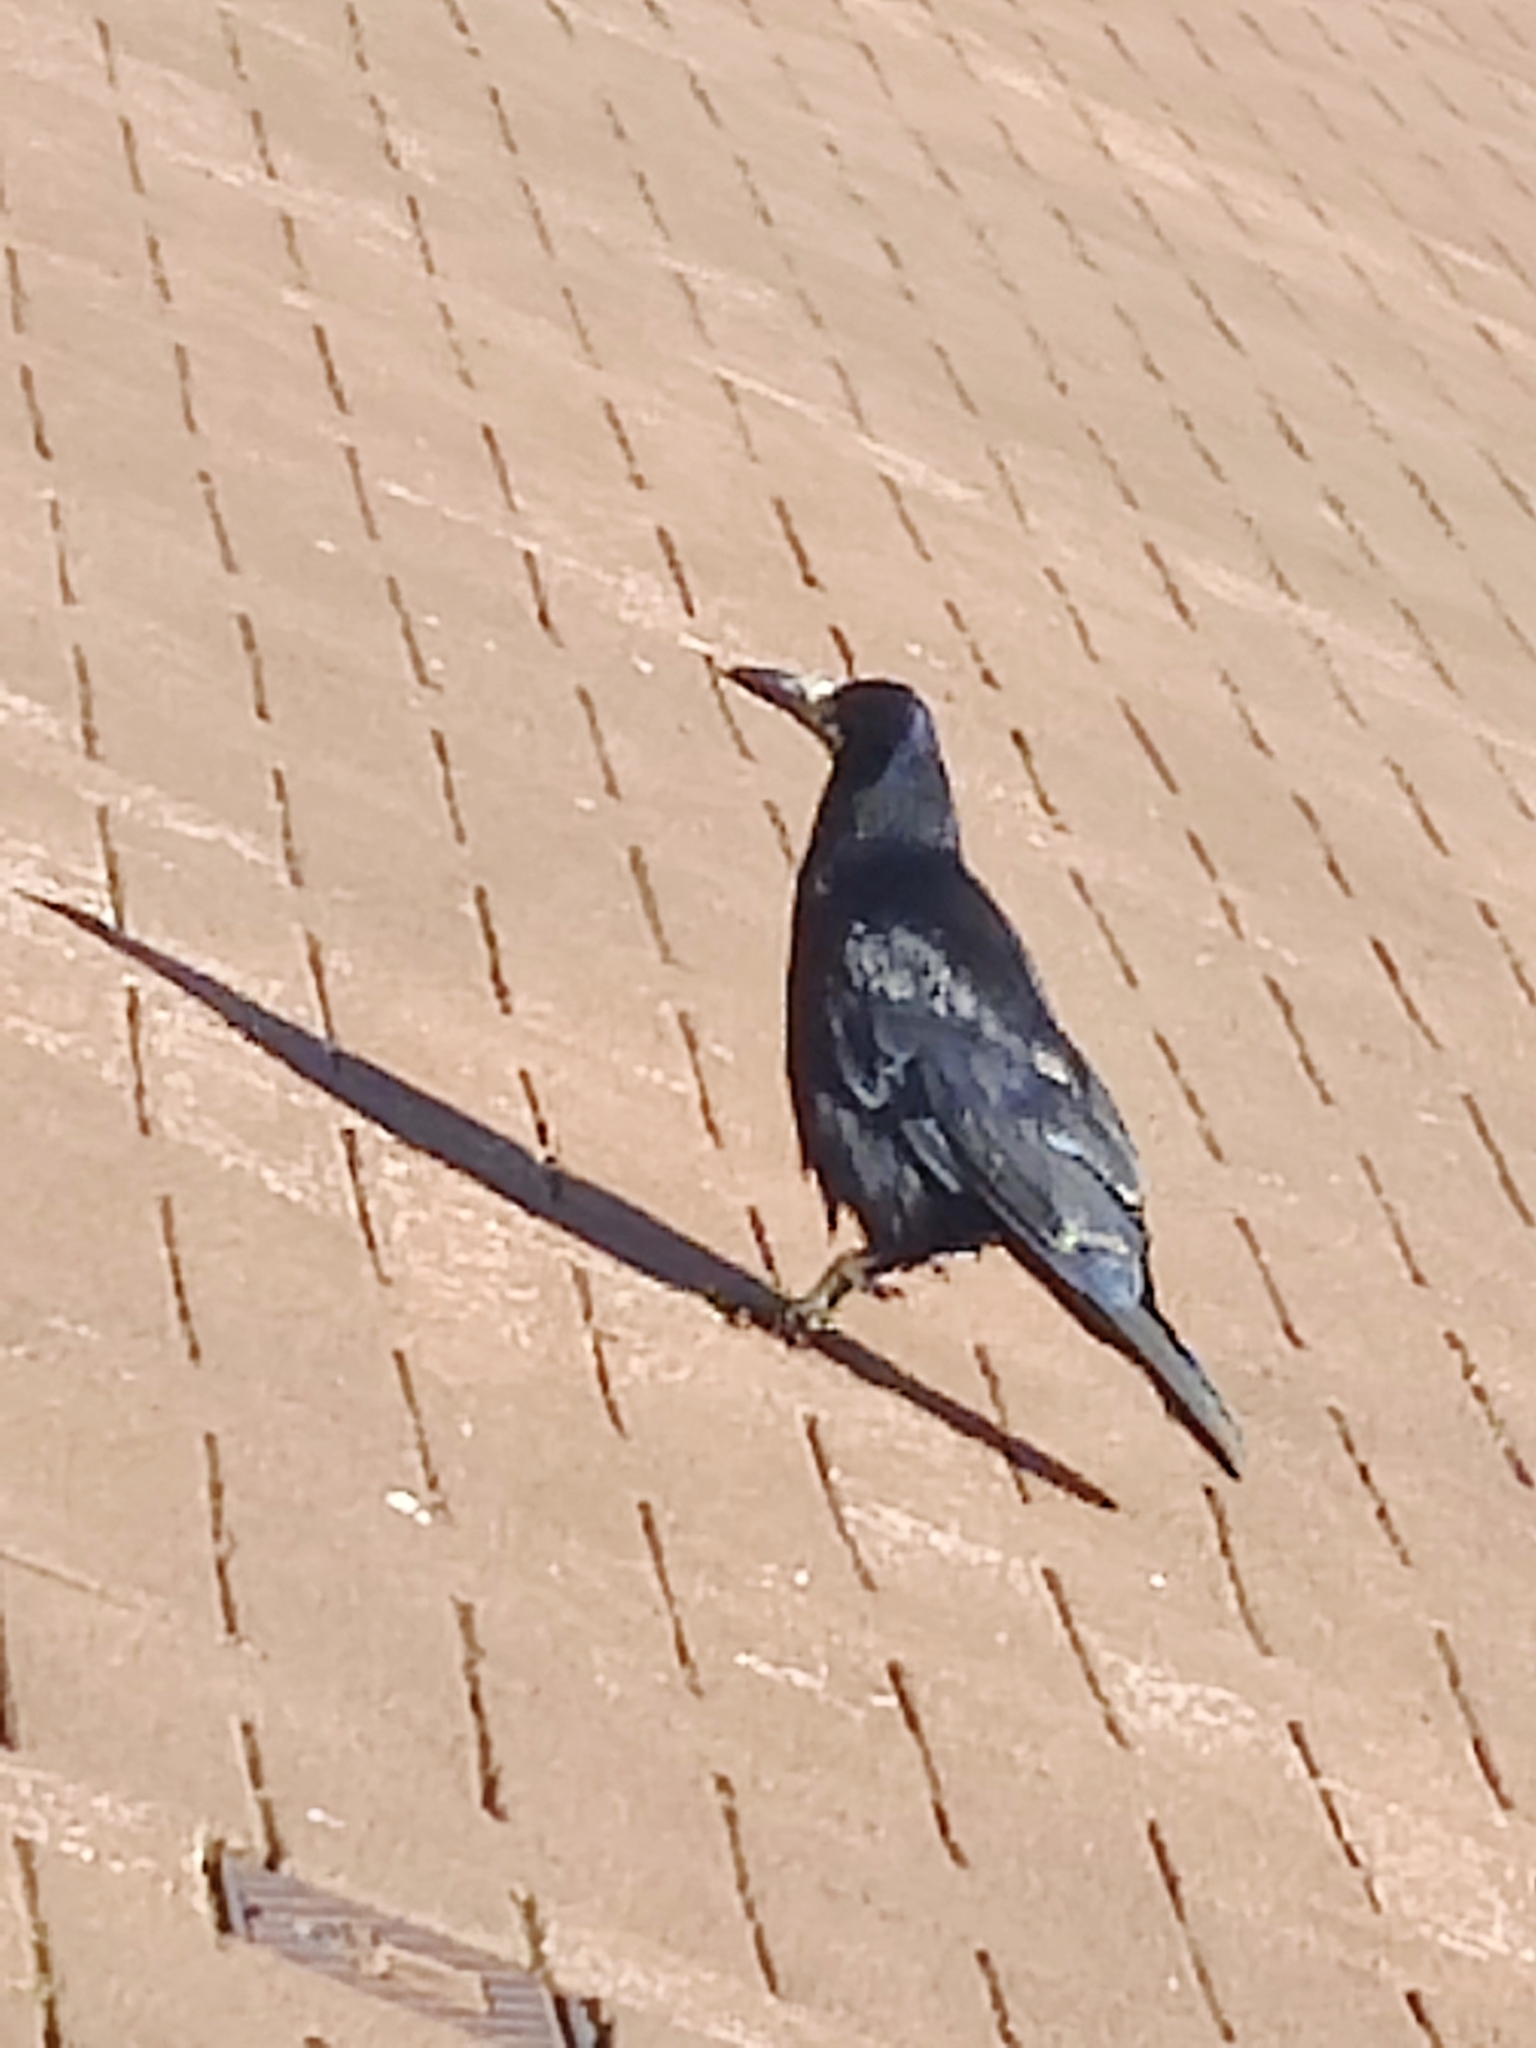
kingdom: Animalia
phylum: Chordata
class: Aves
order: Passeriformes
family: Corvidae
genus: Corvus
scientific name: Corvus frugilegus
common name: Rook
